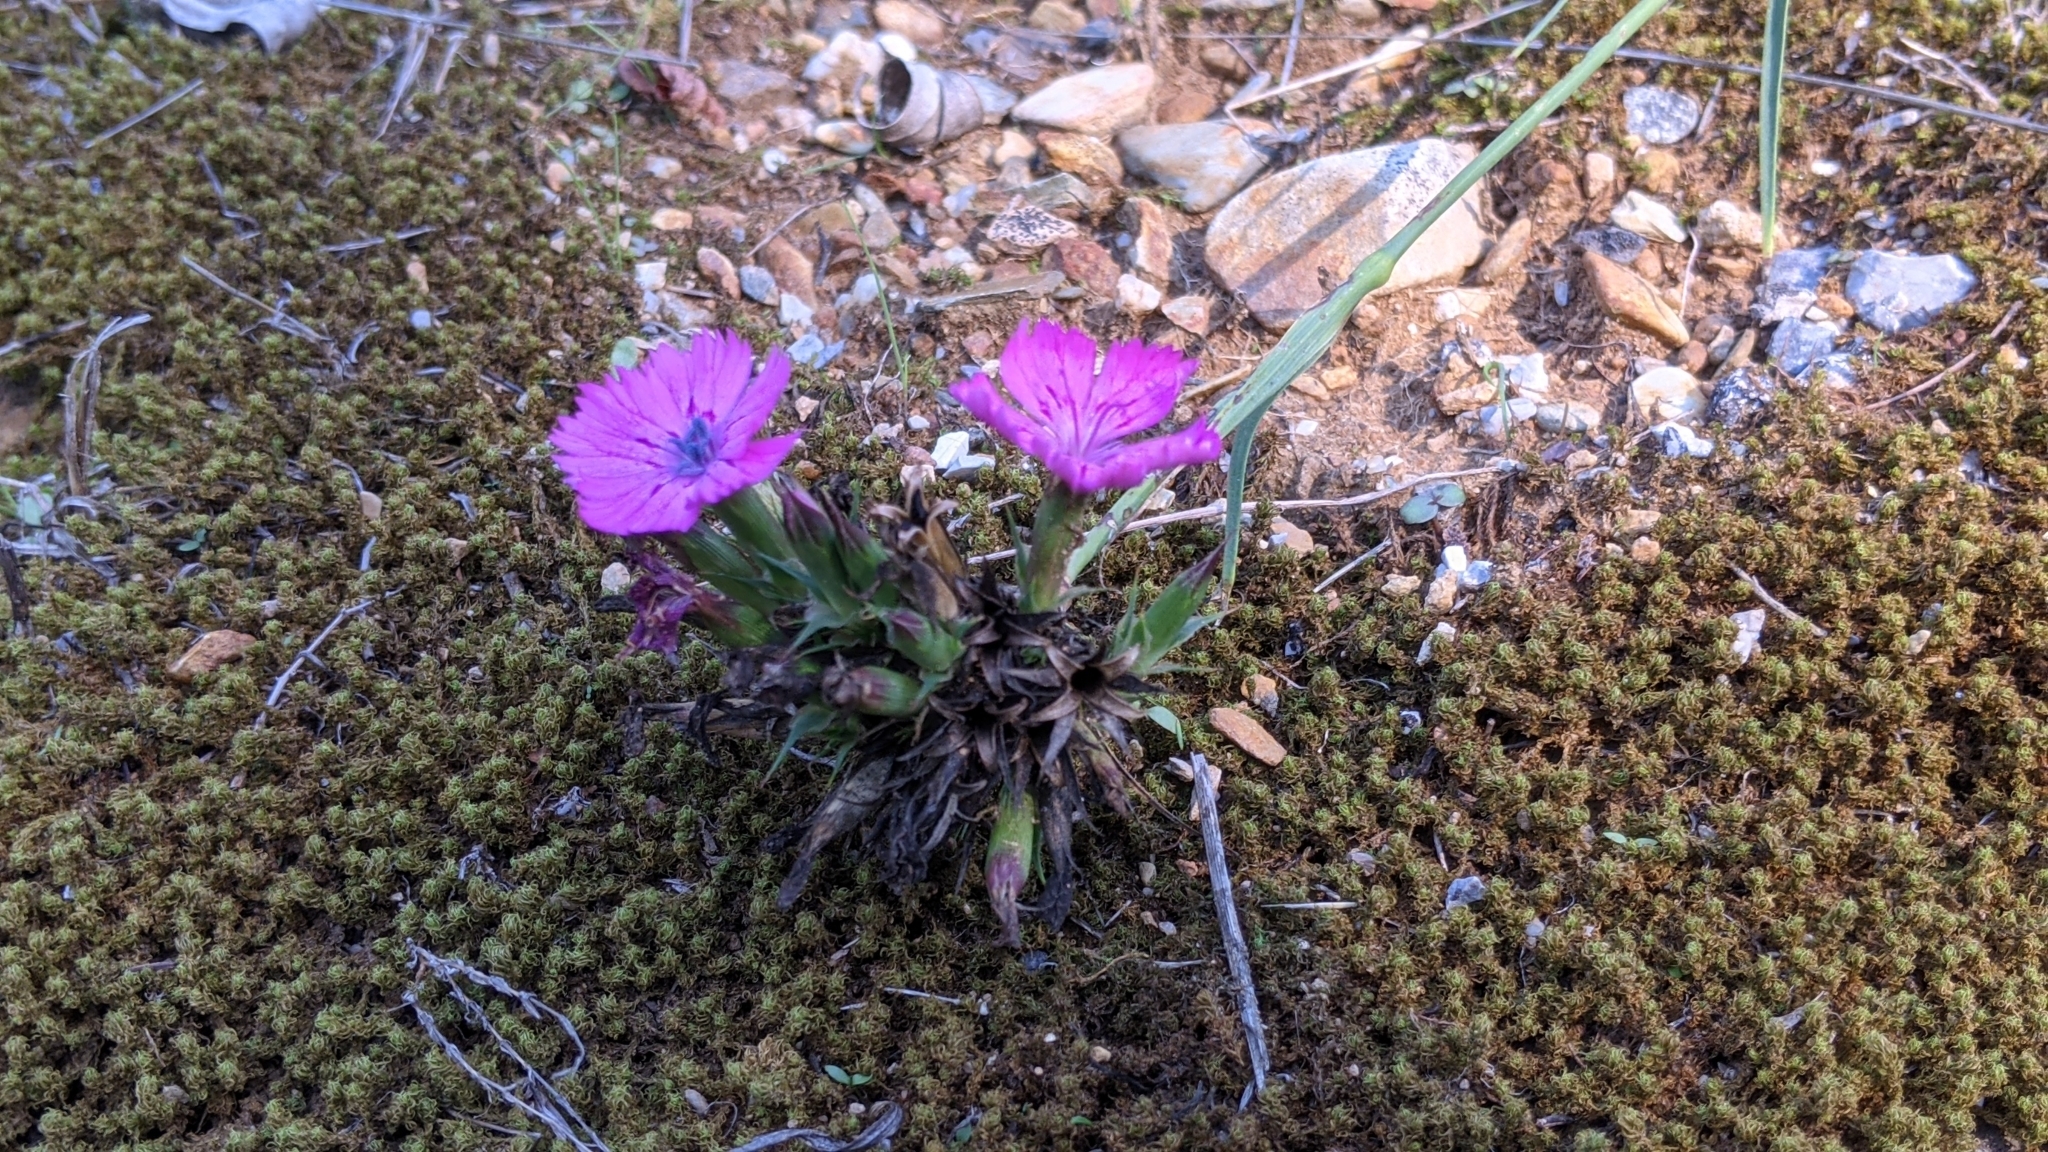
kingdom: Plantae
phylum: Tracheophyta
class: Magnoliopsida
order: Caryophyllales
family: Caryophyllaceae
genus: Dianthus
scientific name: Dianthus balbisii
